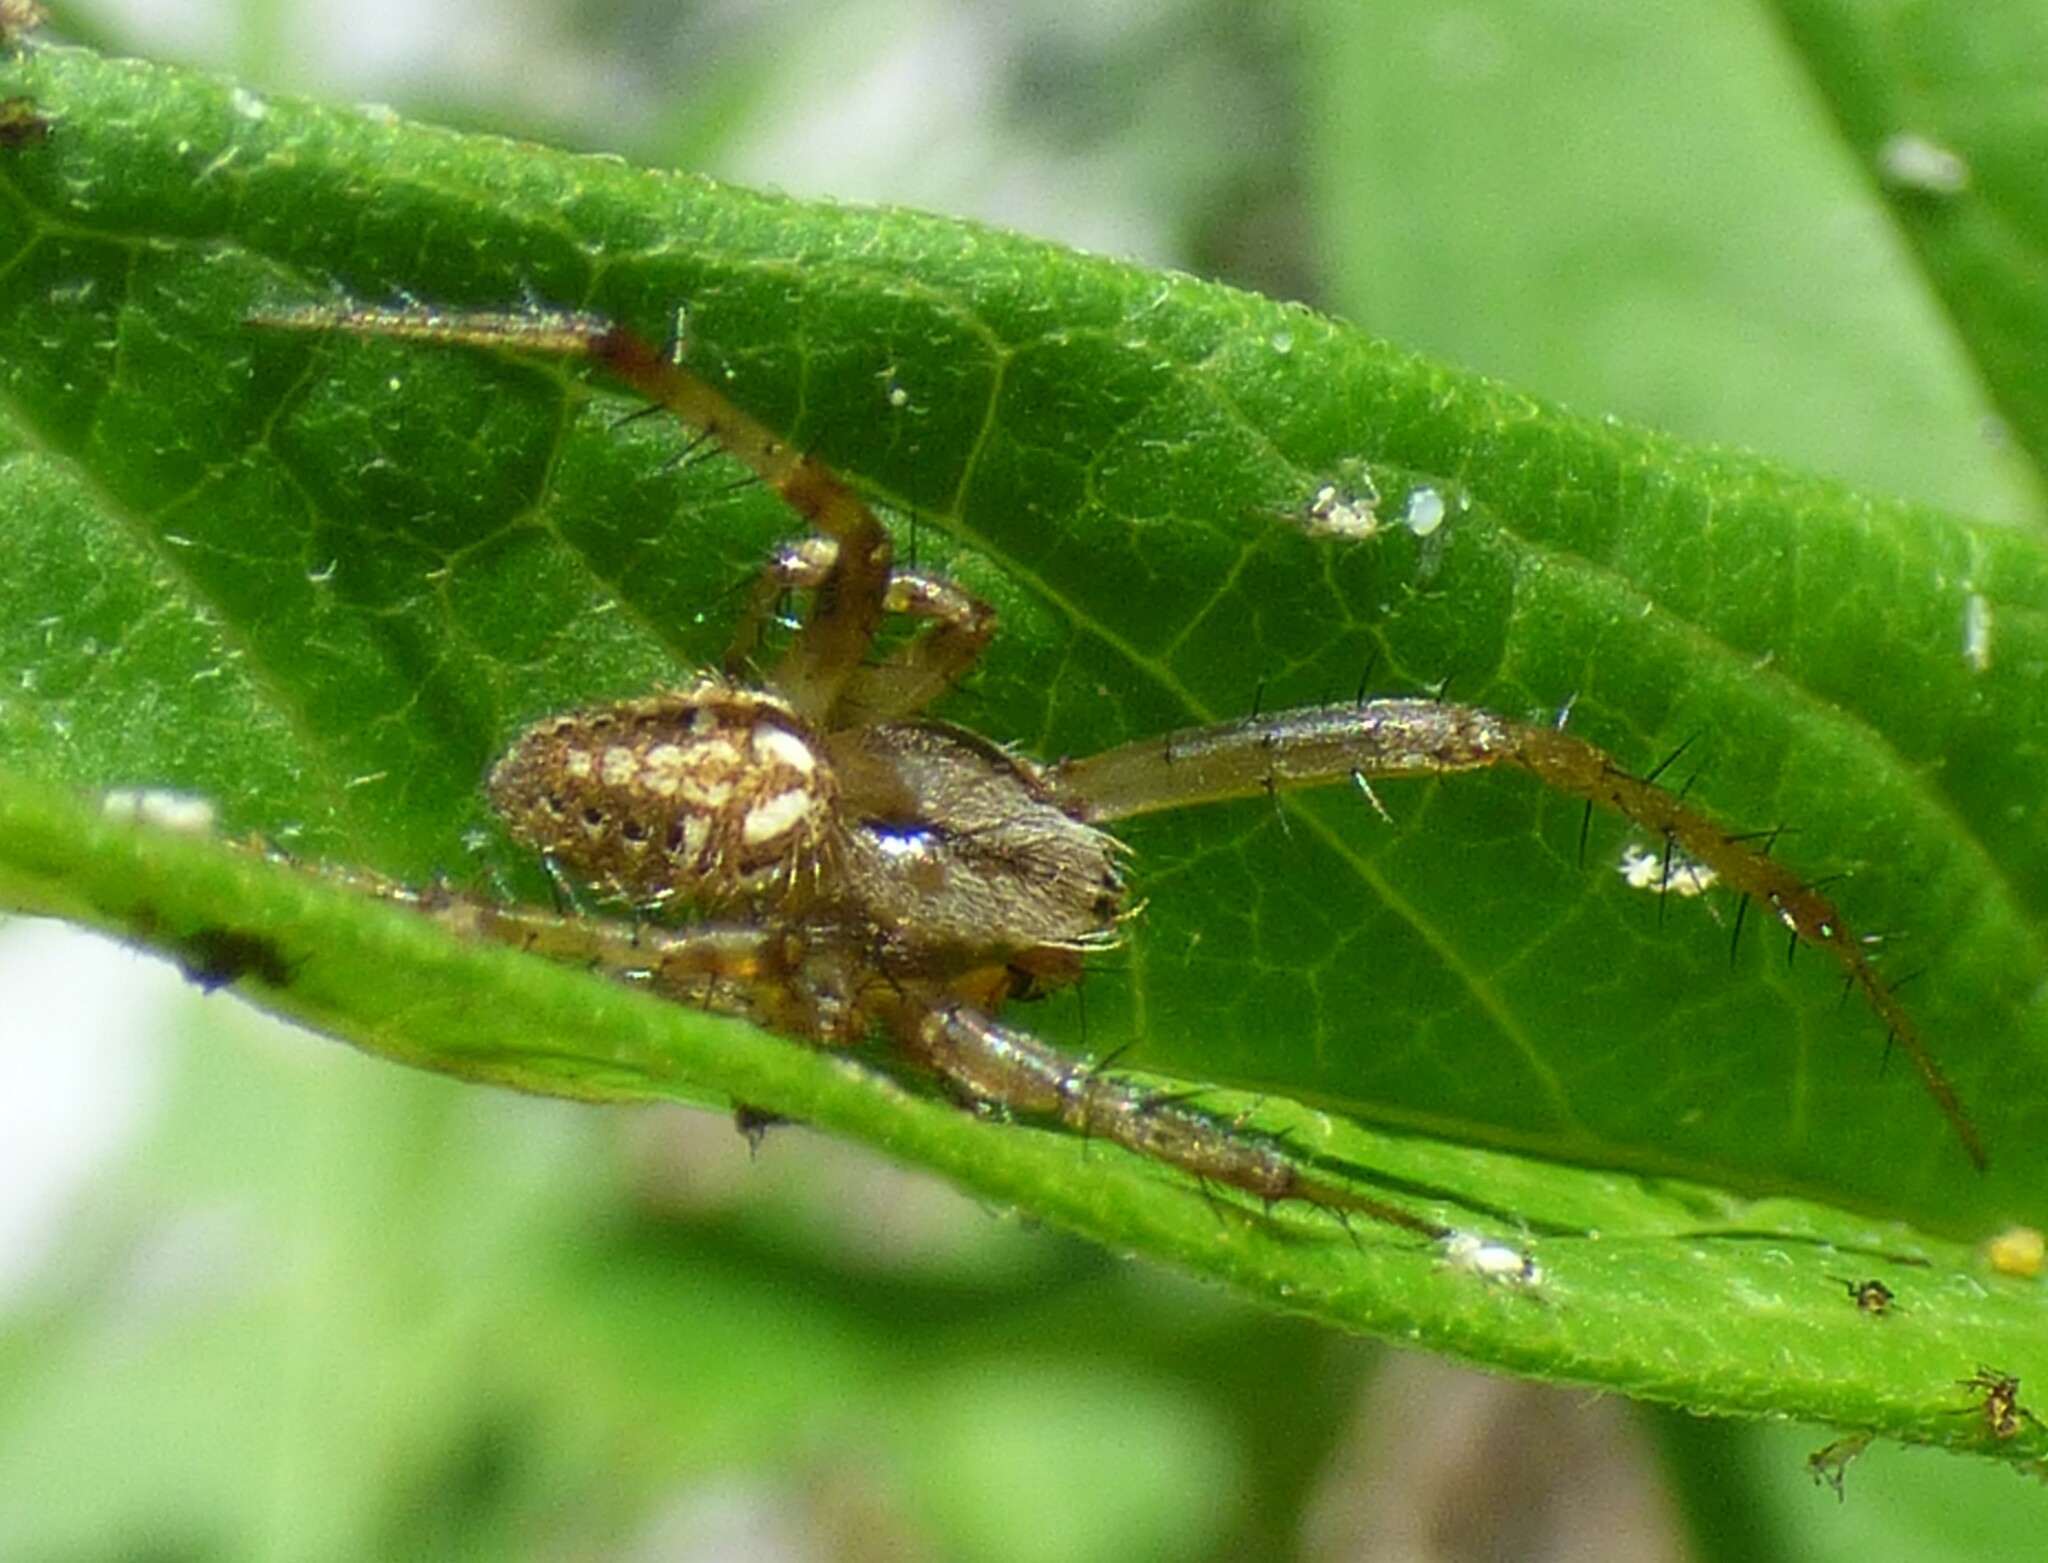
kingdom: Animalia
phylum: Arthropoda
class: Arachnida
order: Araneae
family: Araneidae
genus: Neoscona
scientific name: Neoscona arabesca
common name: Orb weavers
